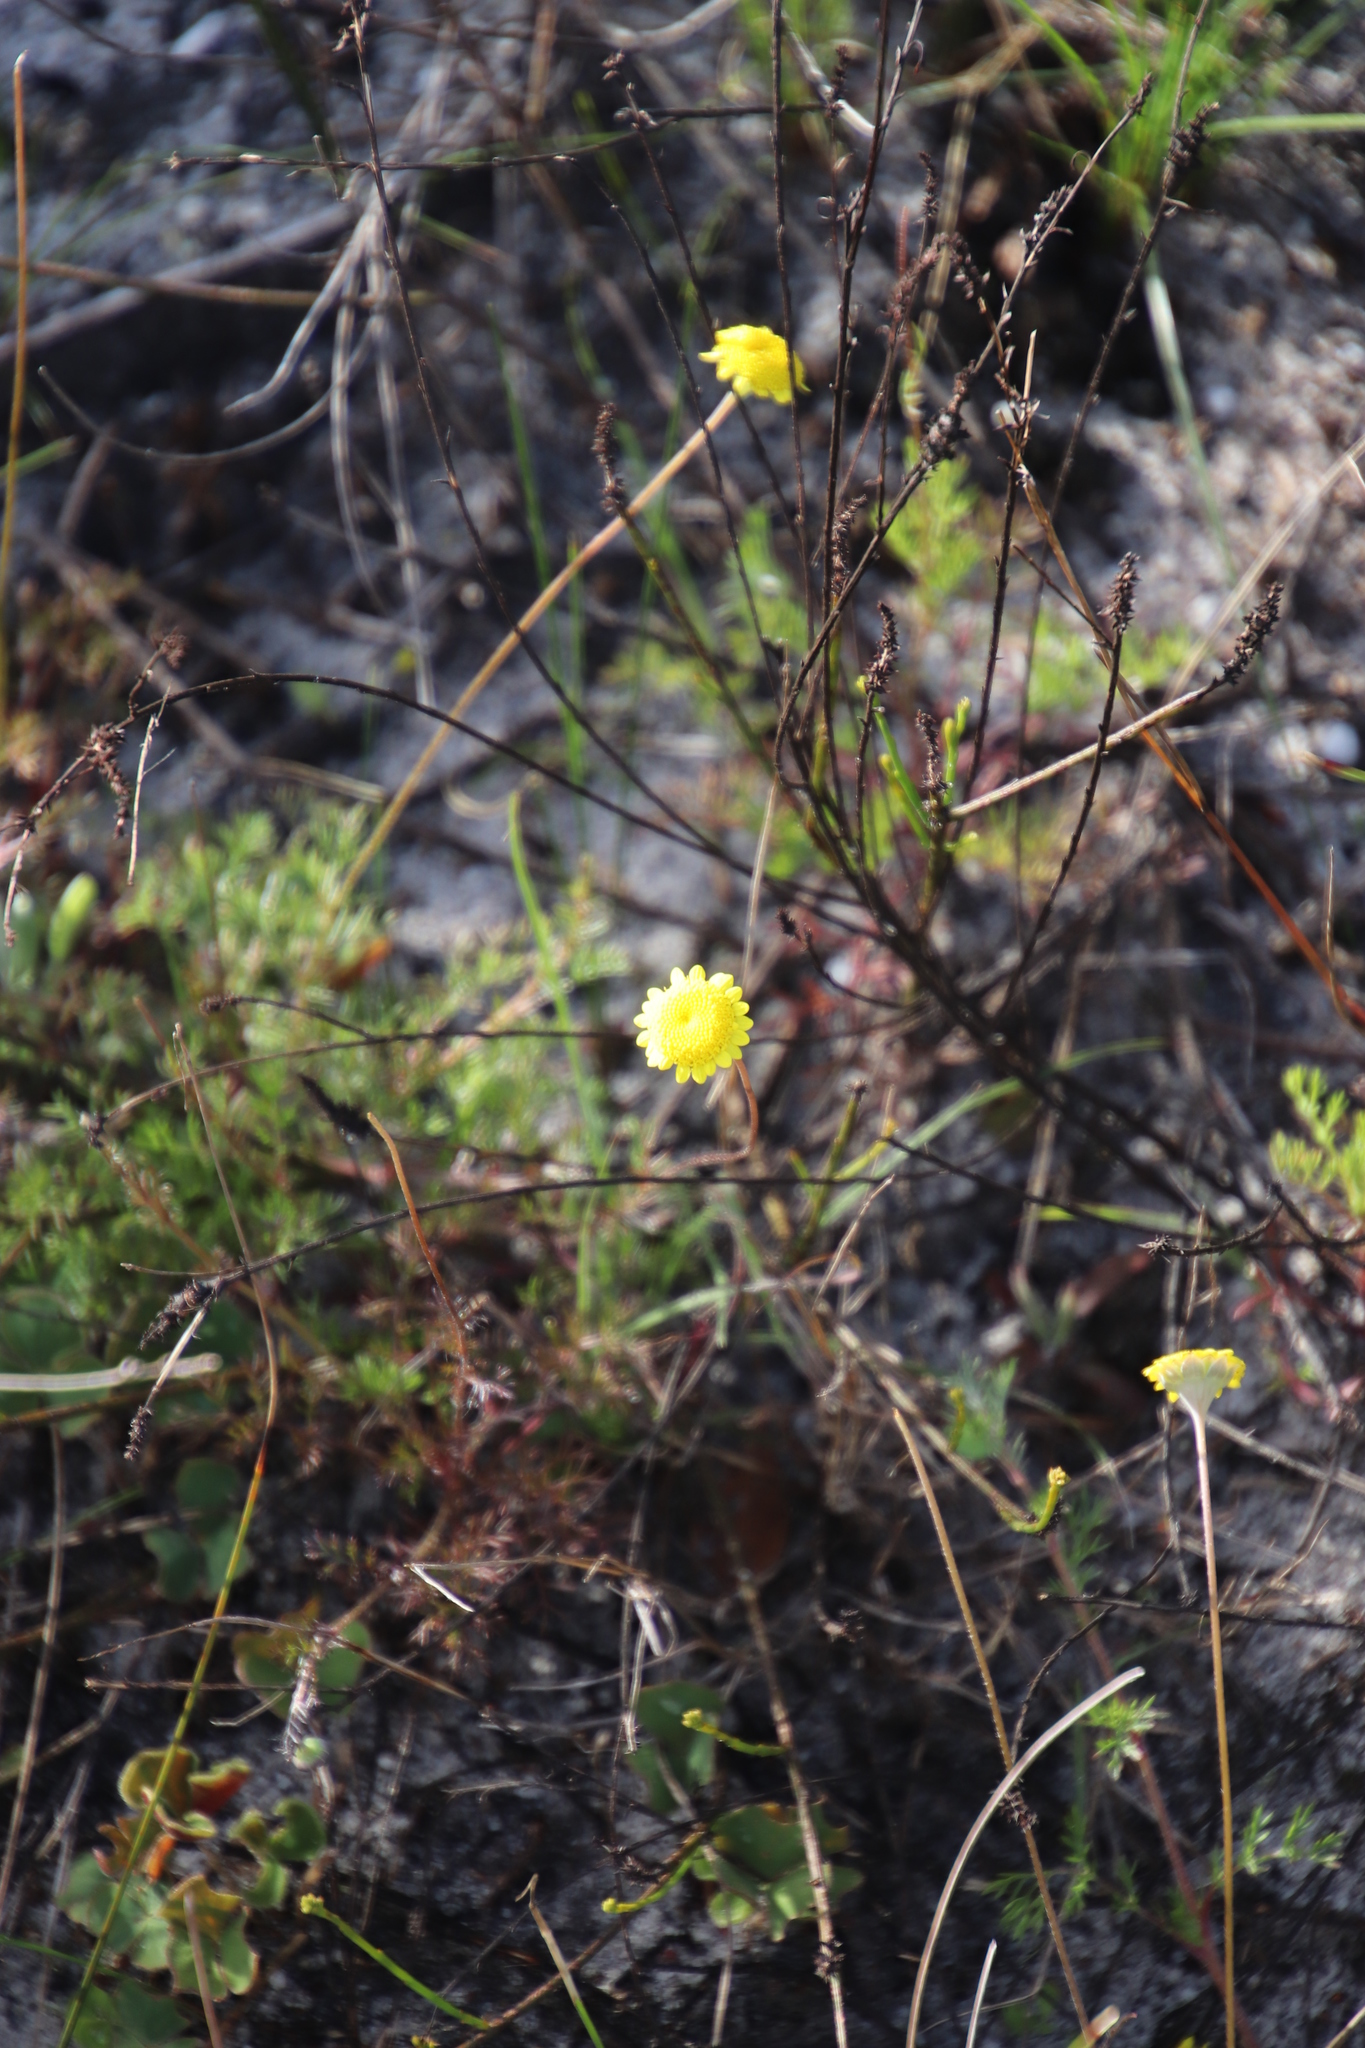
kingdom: Plantae
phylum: Tracheophyta
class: Magnoliopsida
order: Asterales
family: Asteraceae
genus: Cotula
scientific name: Cotula pruinosa
